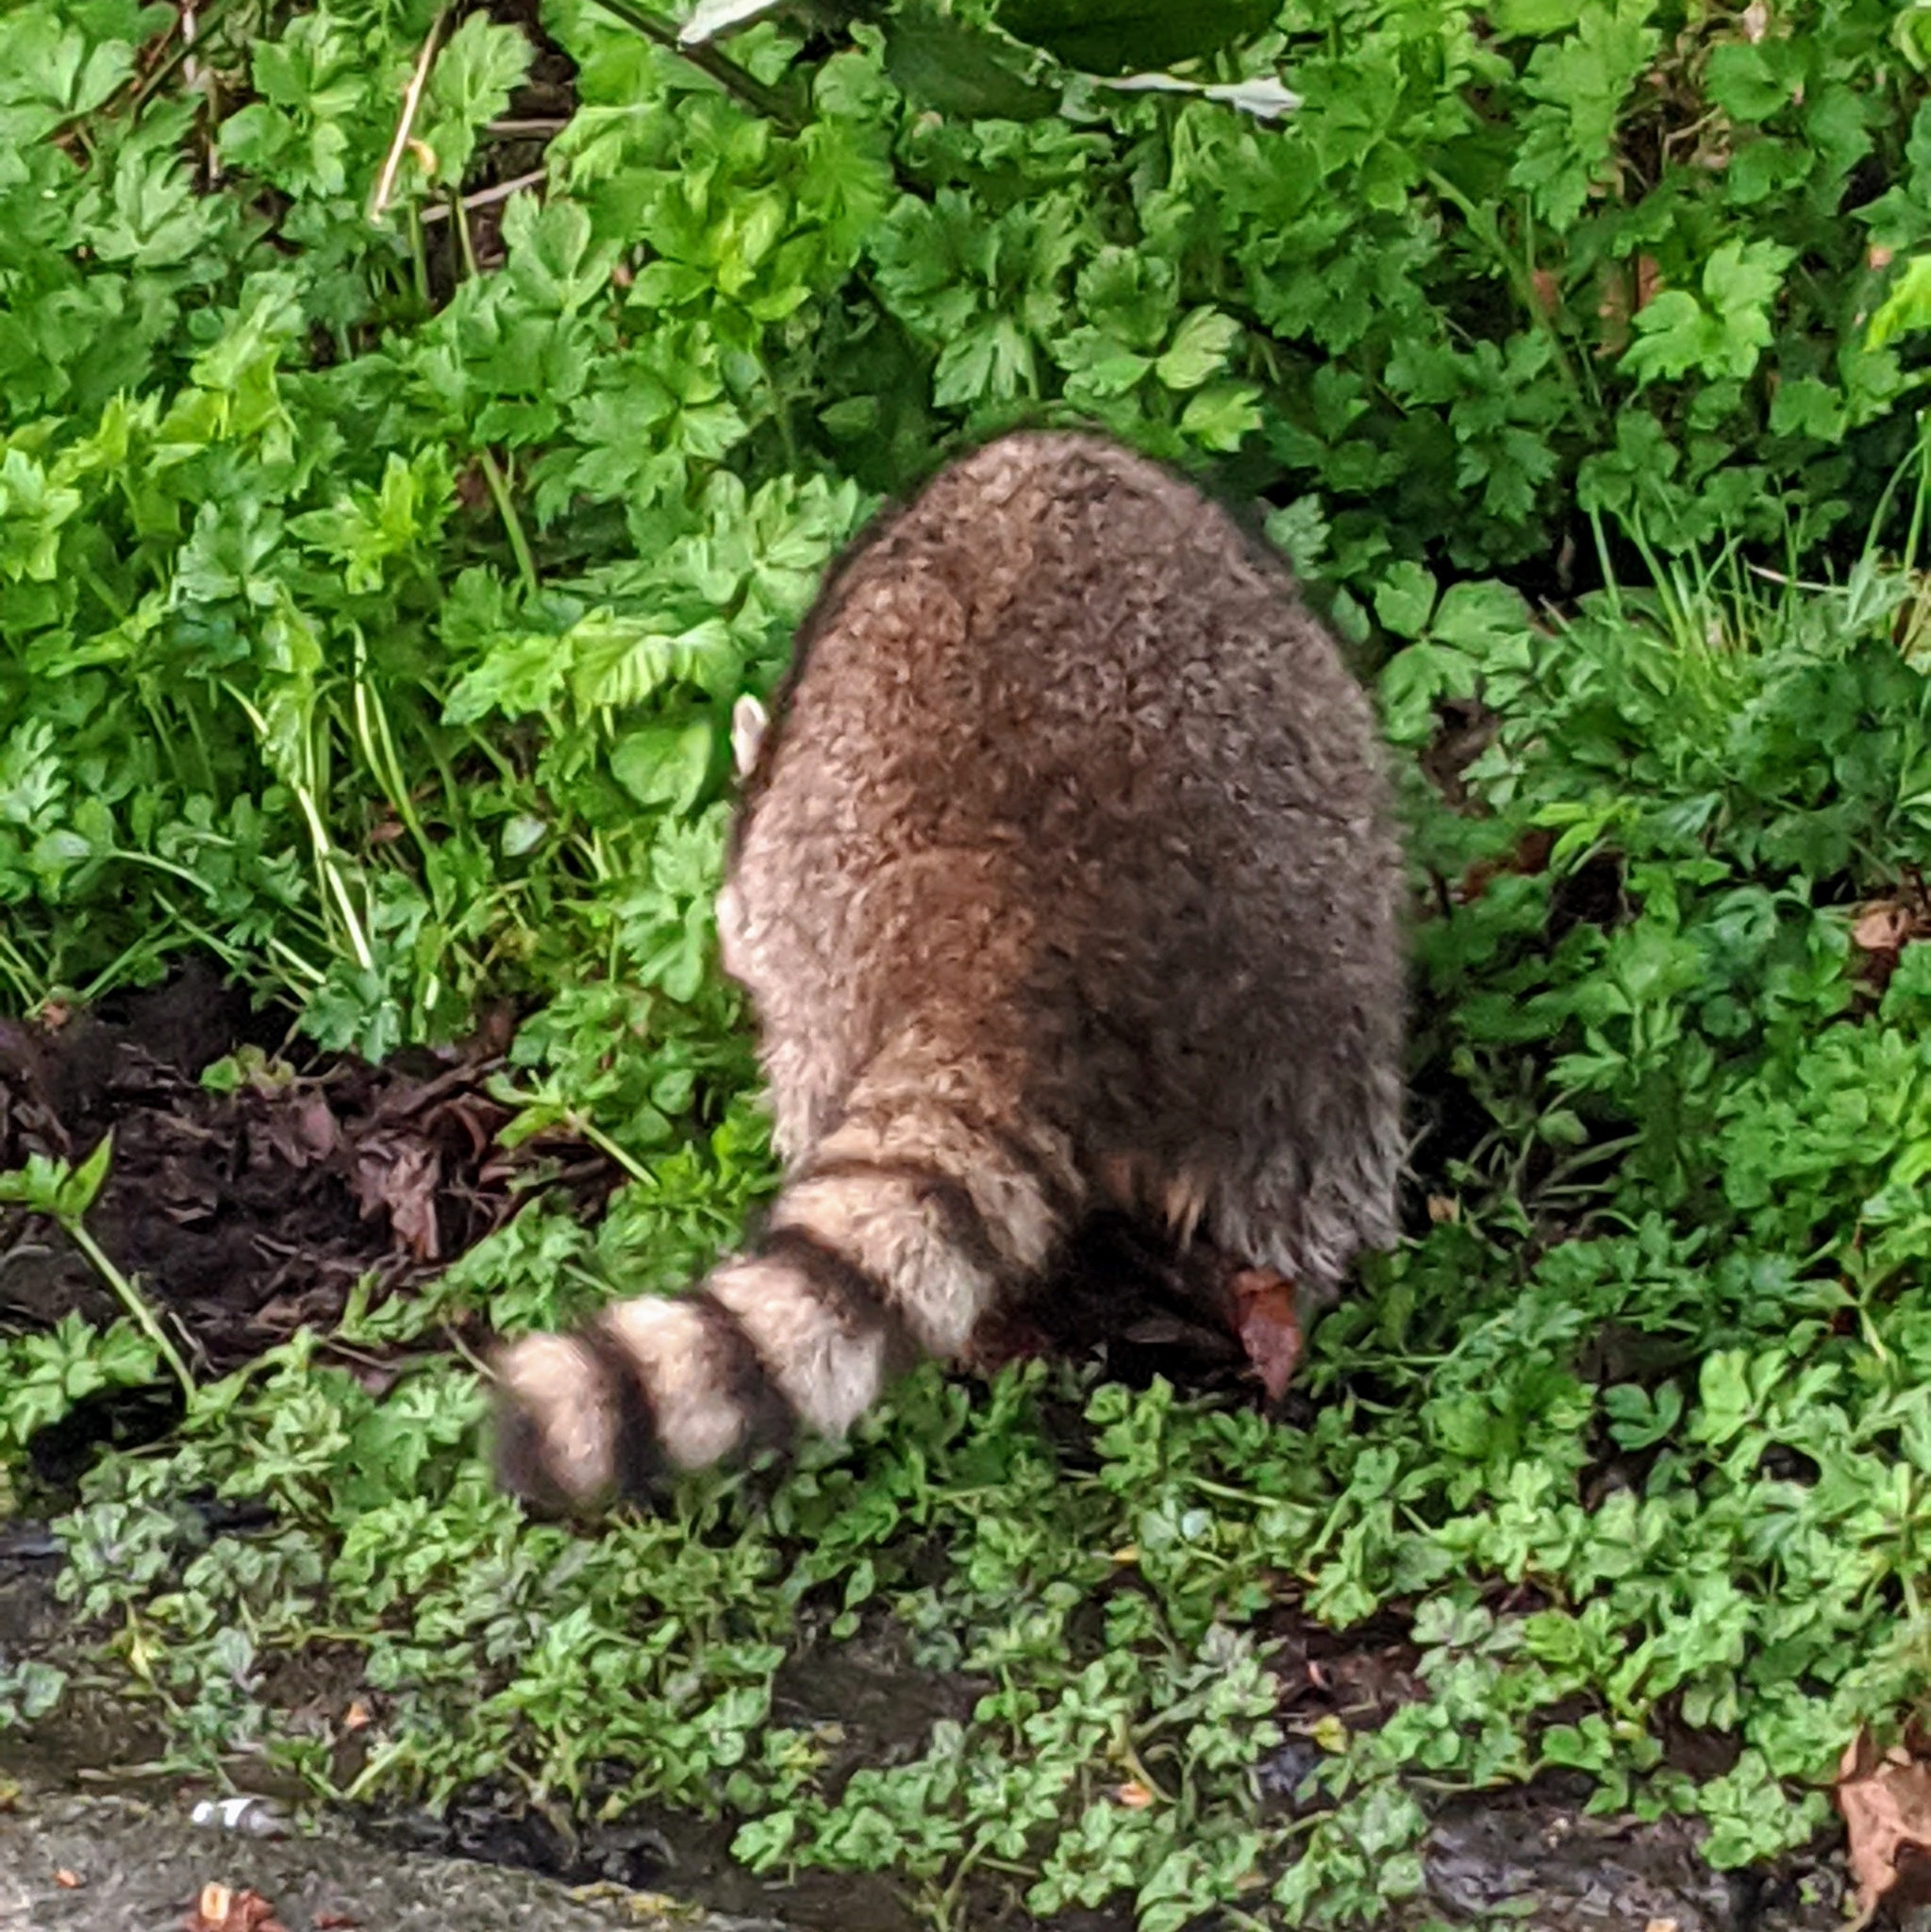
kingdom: Animalia
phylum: Chordata
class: Mammalia
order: Carnivora
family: Procyonidae
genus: Procyon
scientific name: Procyon lotor
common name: Raccoon
